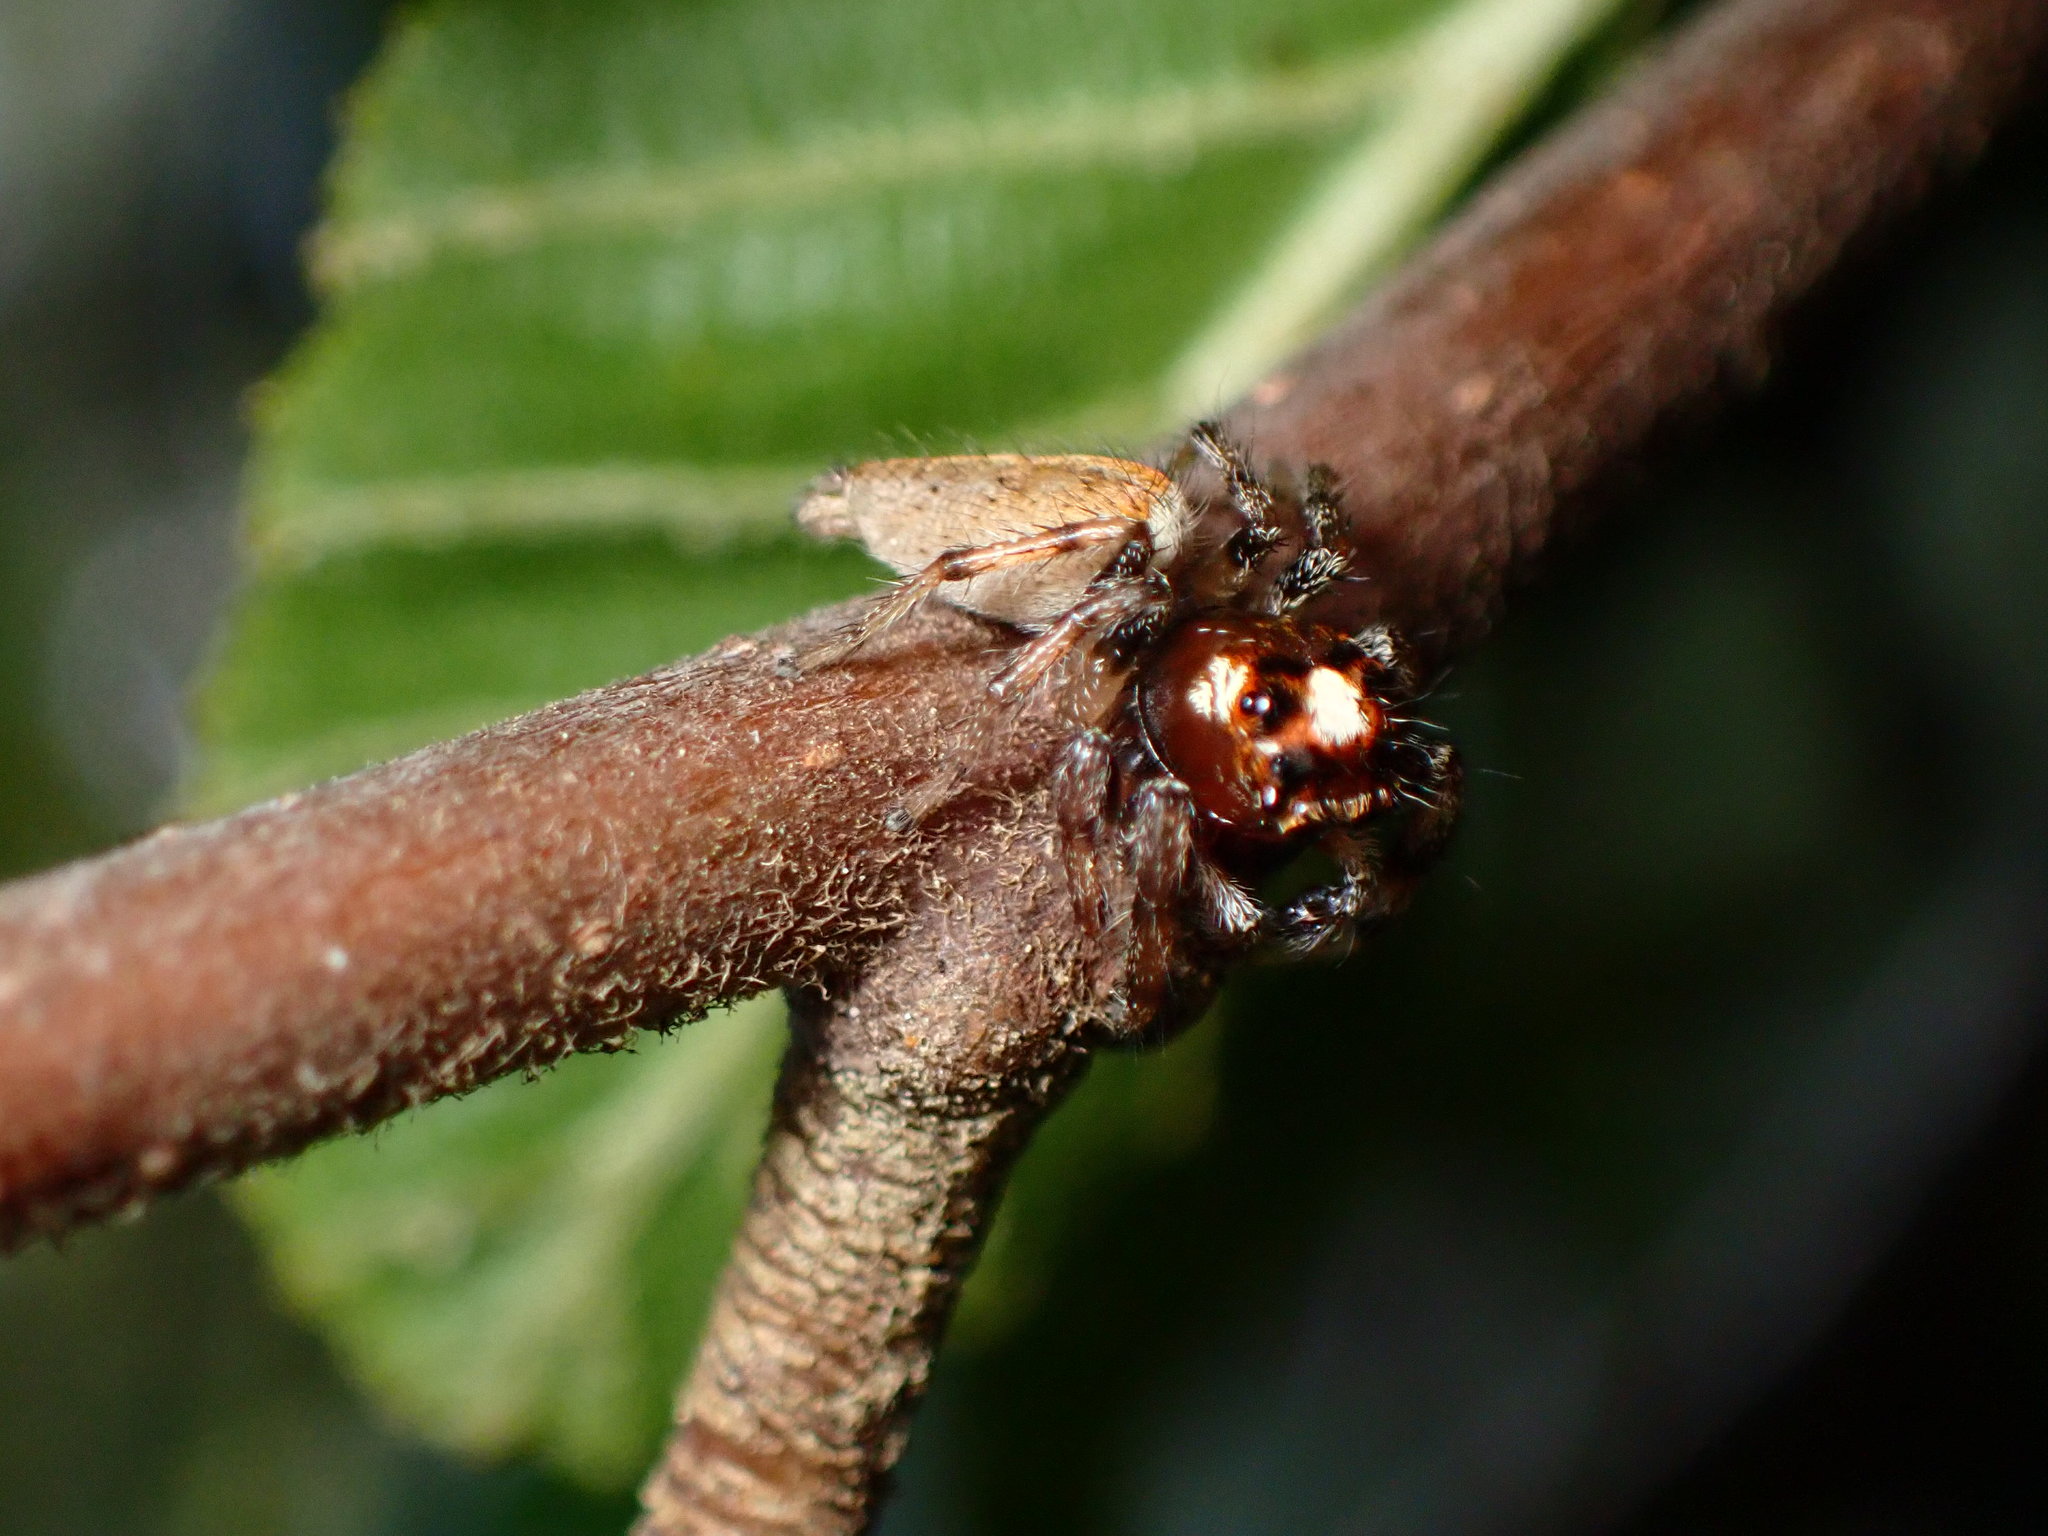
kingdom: Animalia
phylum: Arthropoda
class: Arachnida
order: Araneae
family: Salticidae
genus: Colonus
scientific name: Colonus hesperus
